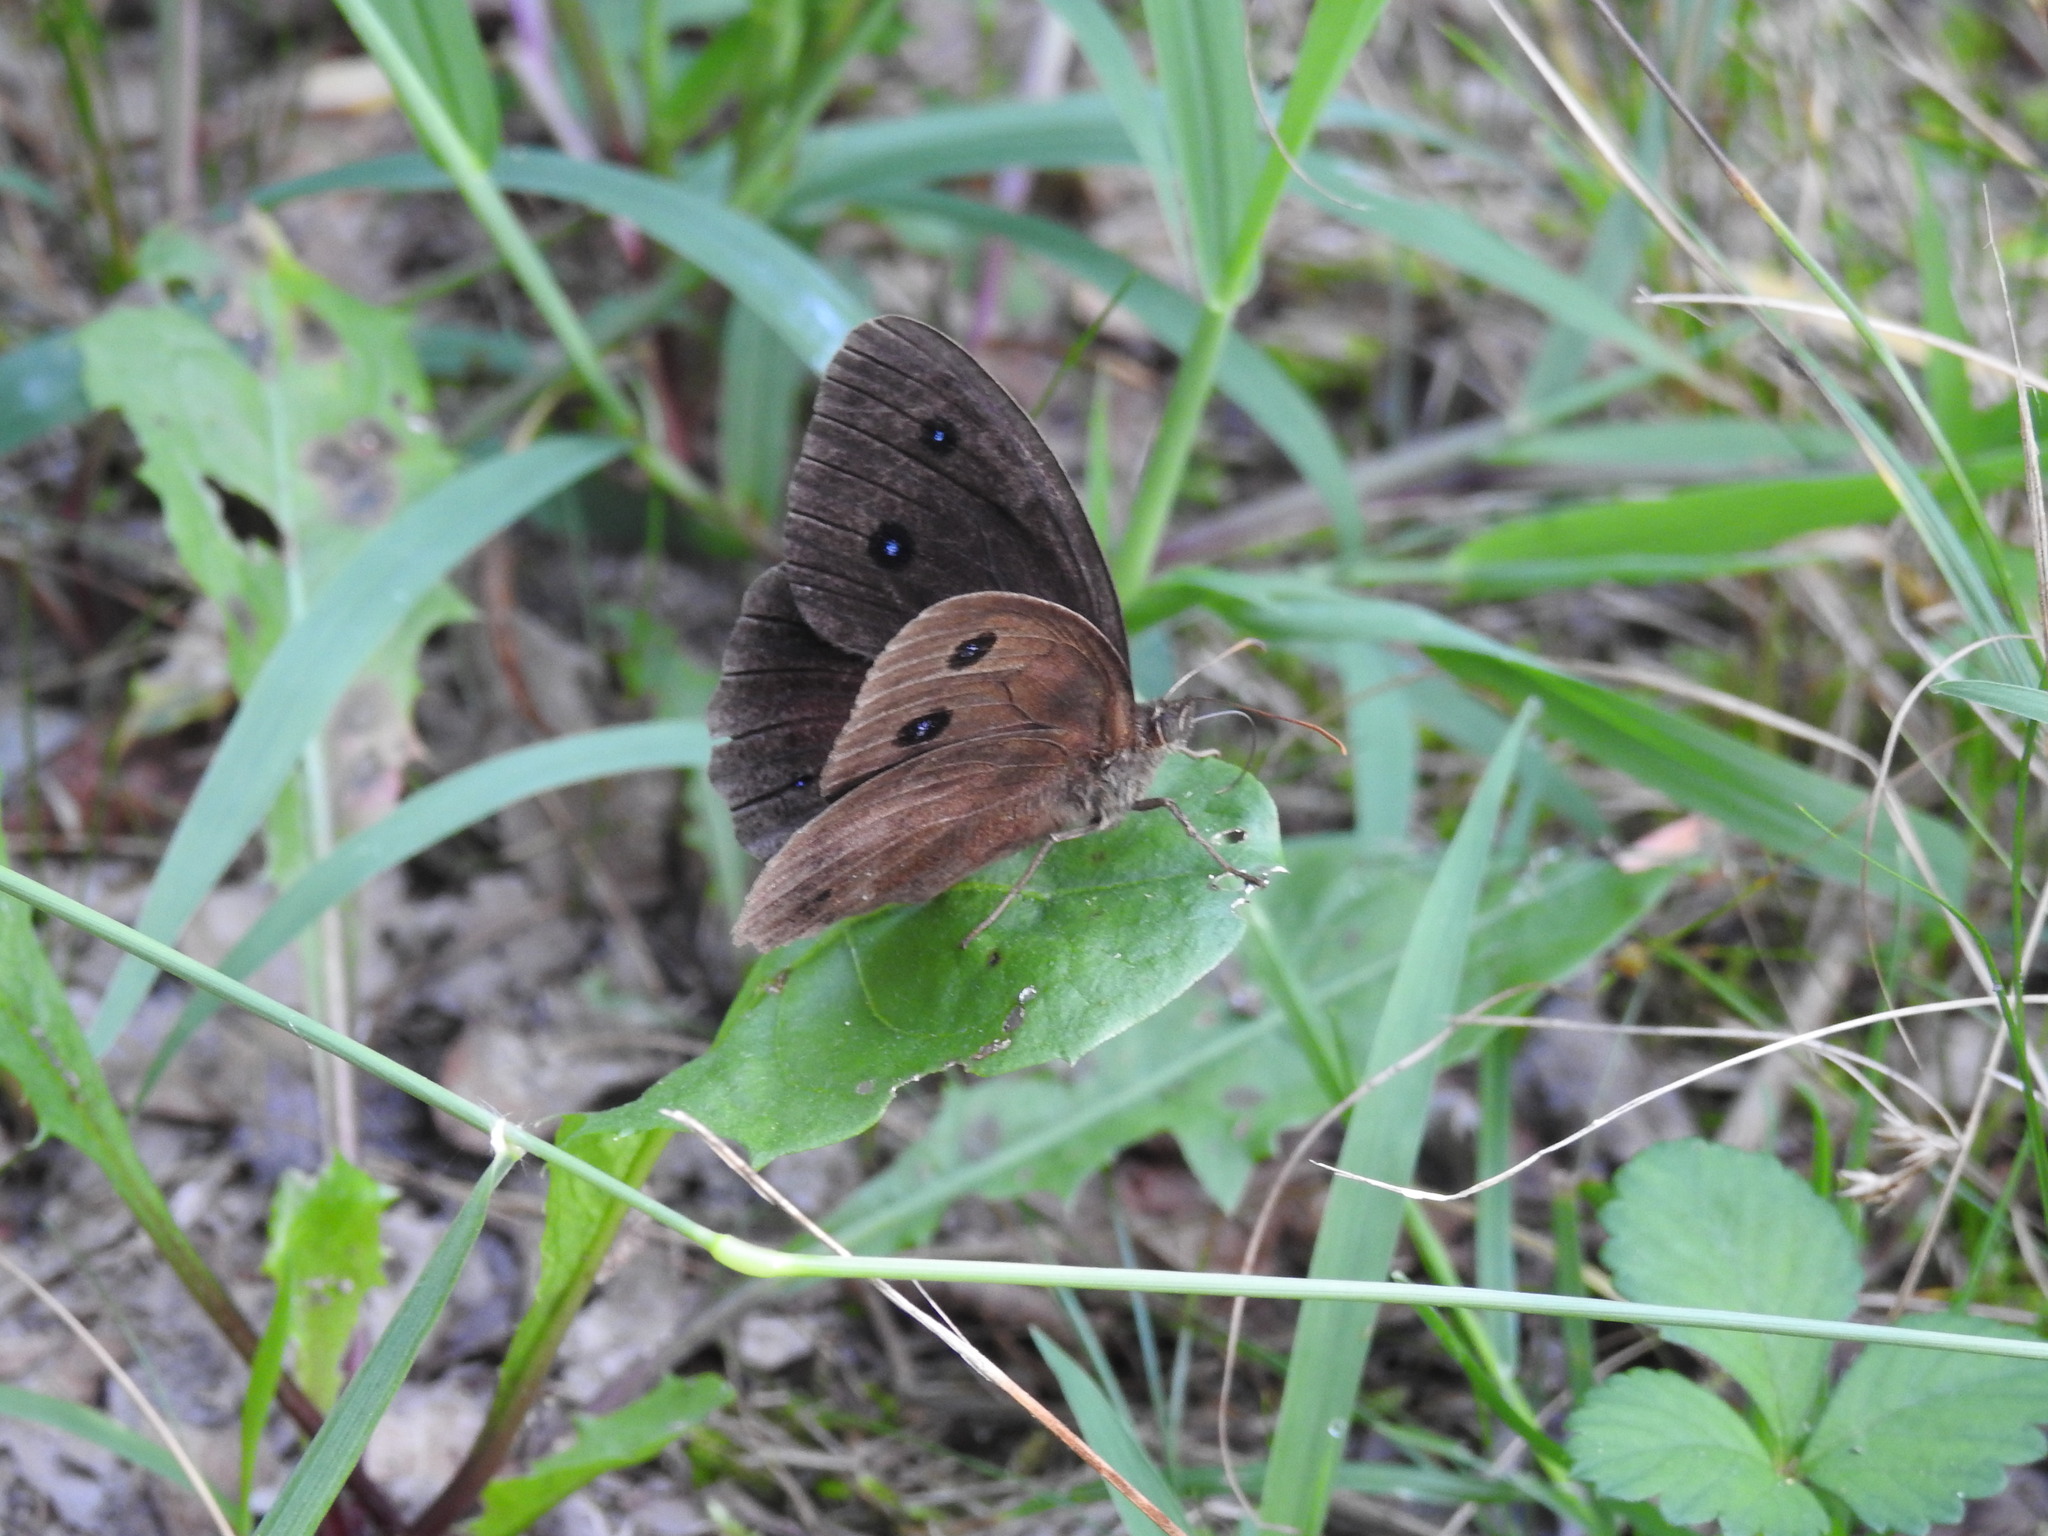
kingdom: Animalia
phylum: Arthropoda
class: Insecta
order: Lepidoptera
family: Nymphalidae
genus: Minois
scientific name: Minois dryas
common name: Dryad
